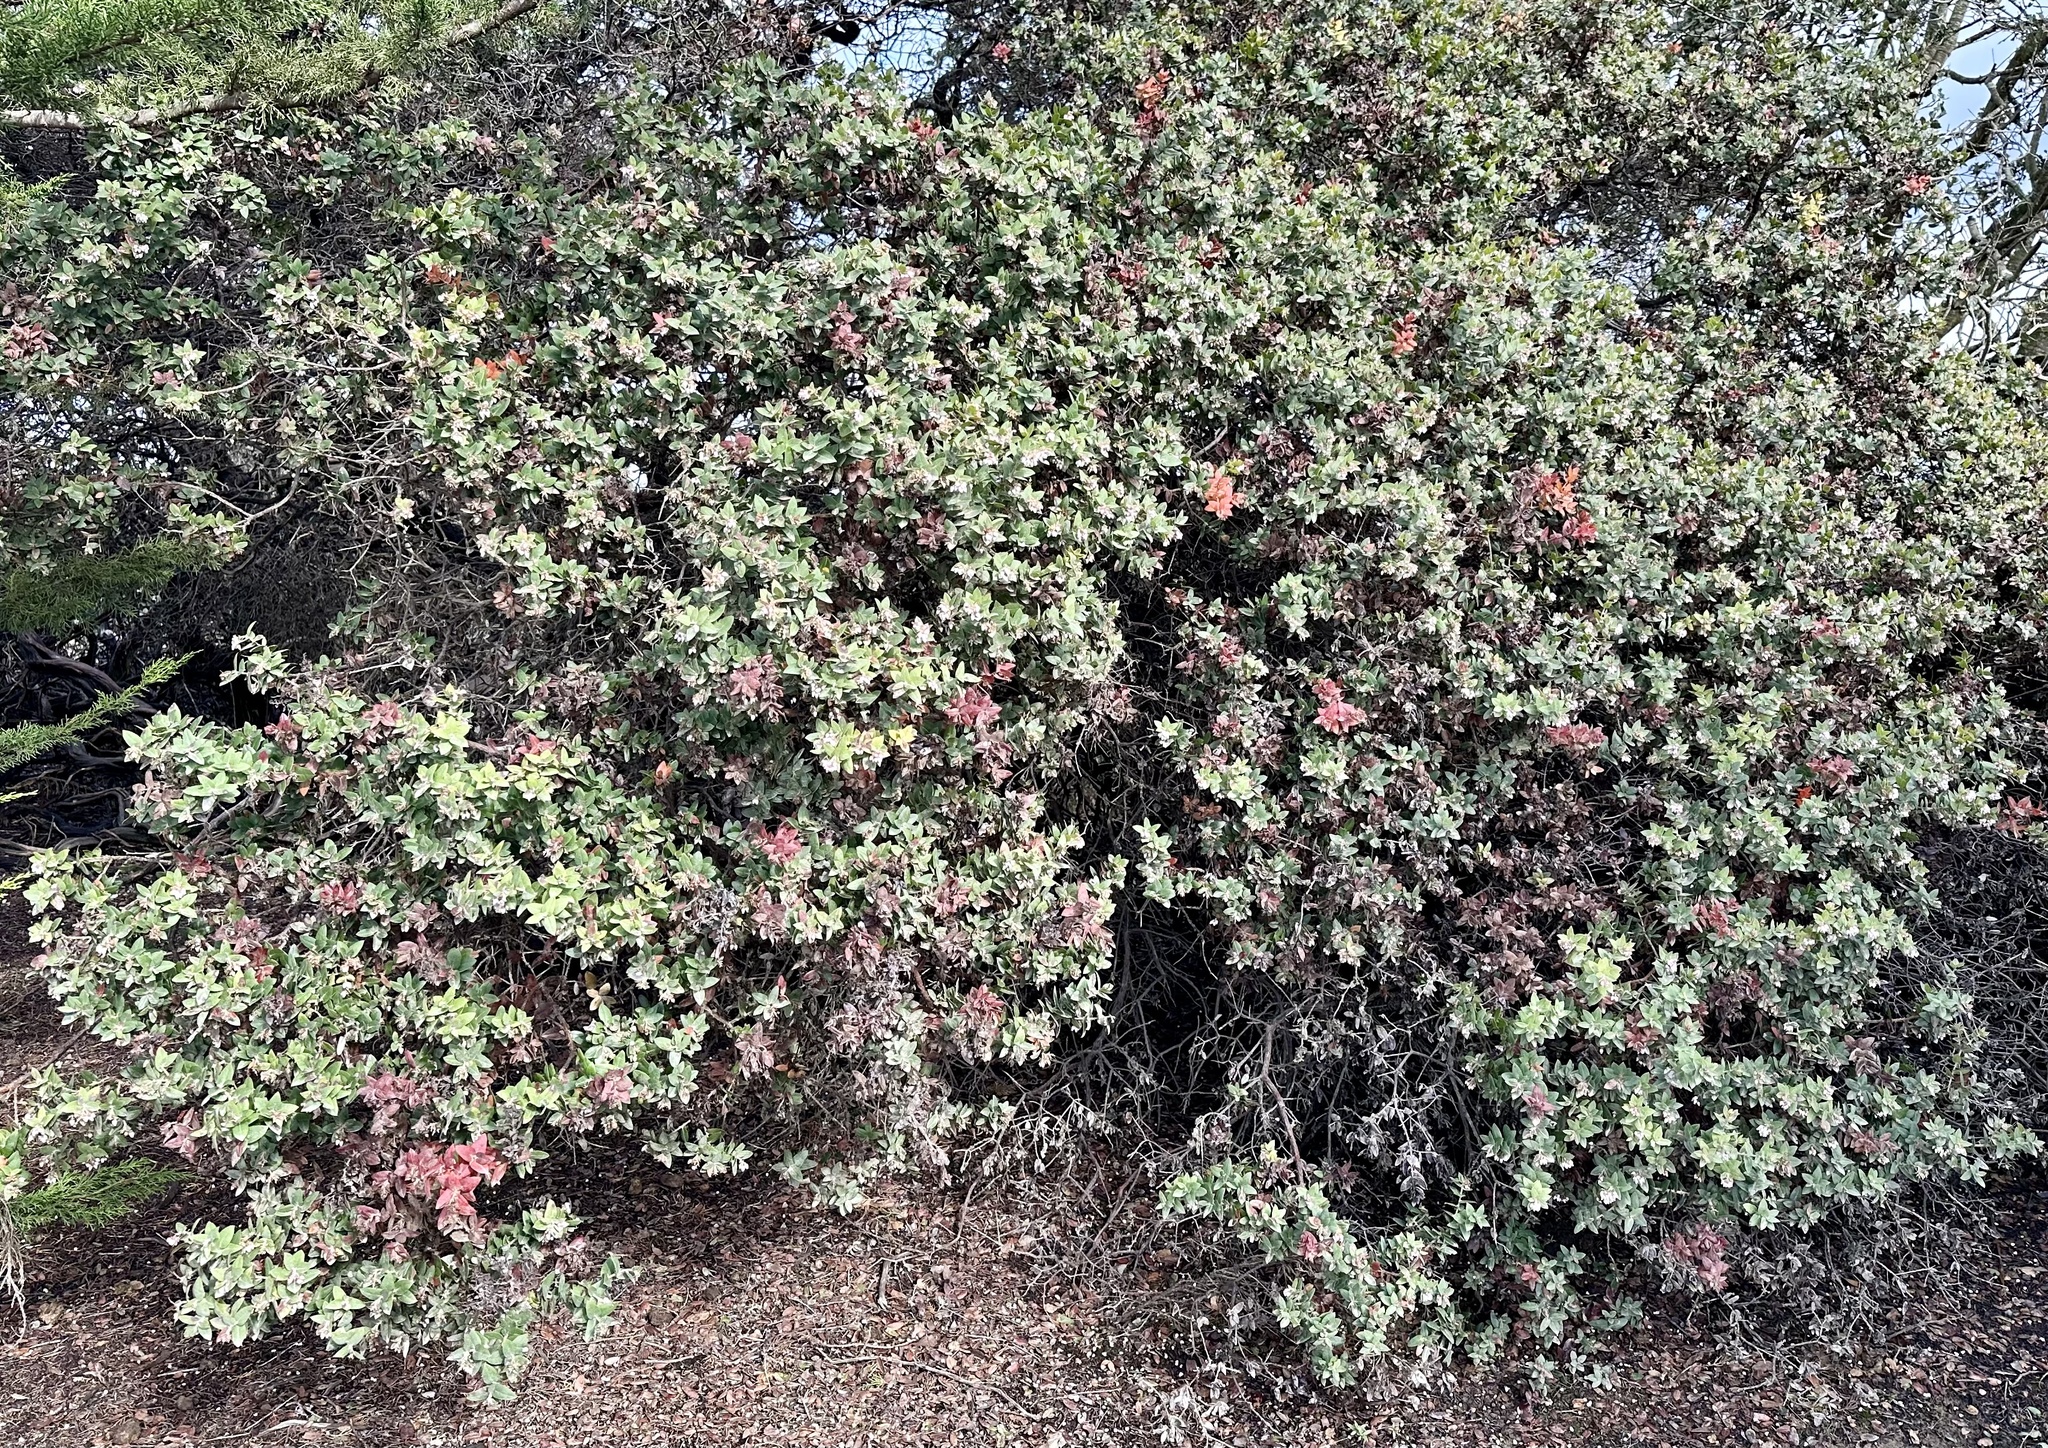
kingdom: Plantae
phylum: Tracheophyta
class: Magnoliopsida
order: Ericales
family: Ericaceae
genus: Arctostaphylos
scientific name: Arctostaphylos pajaroensis
